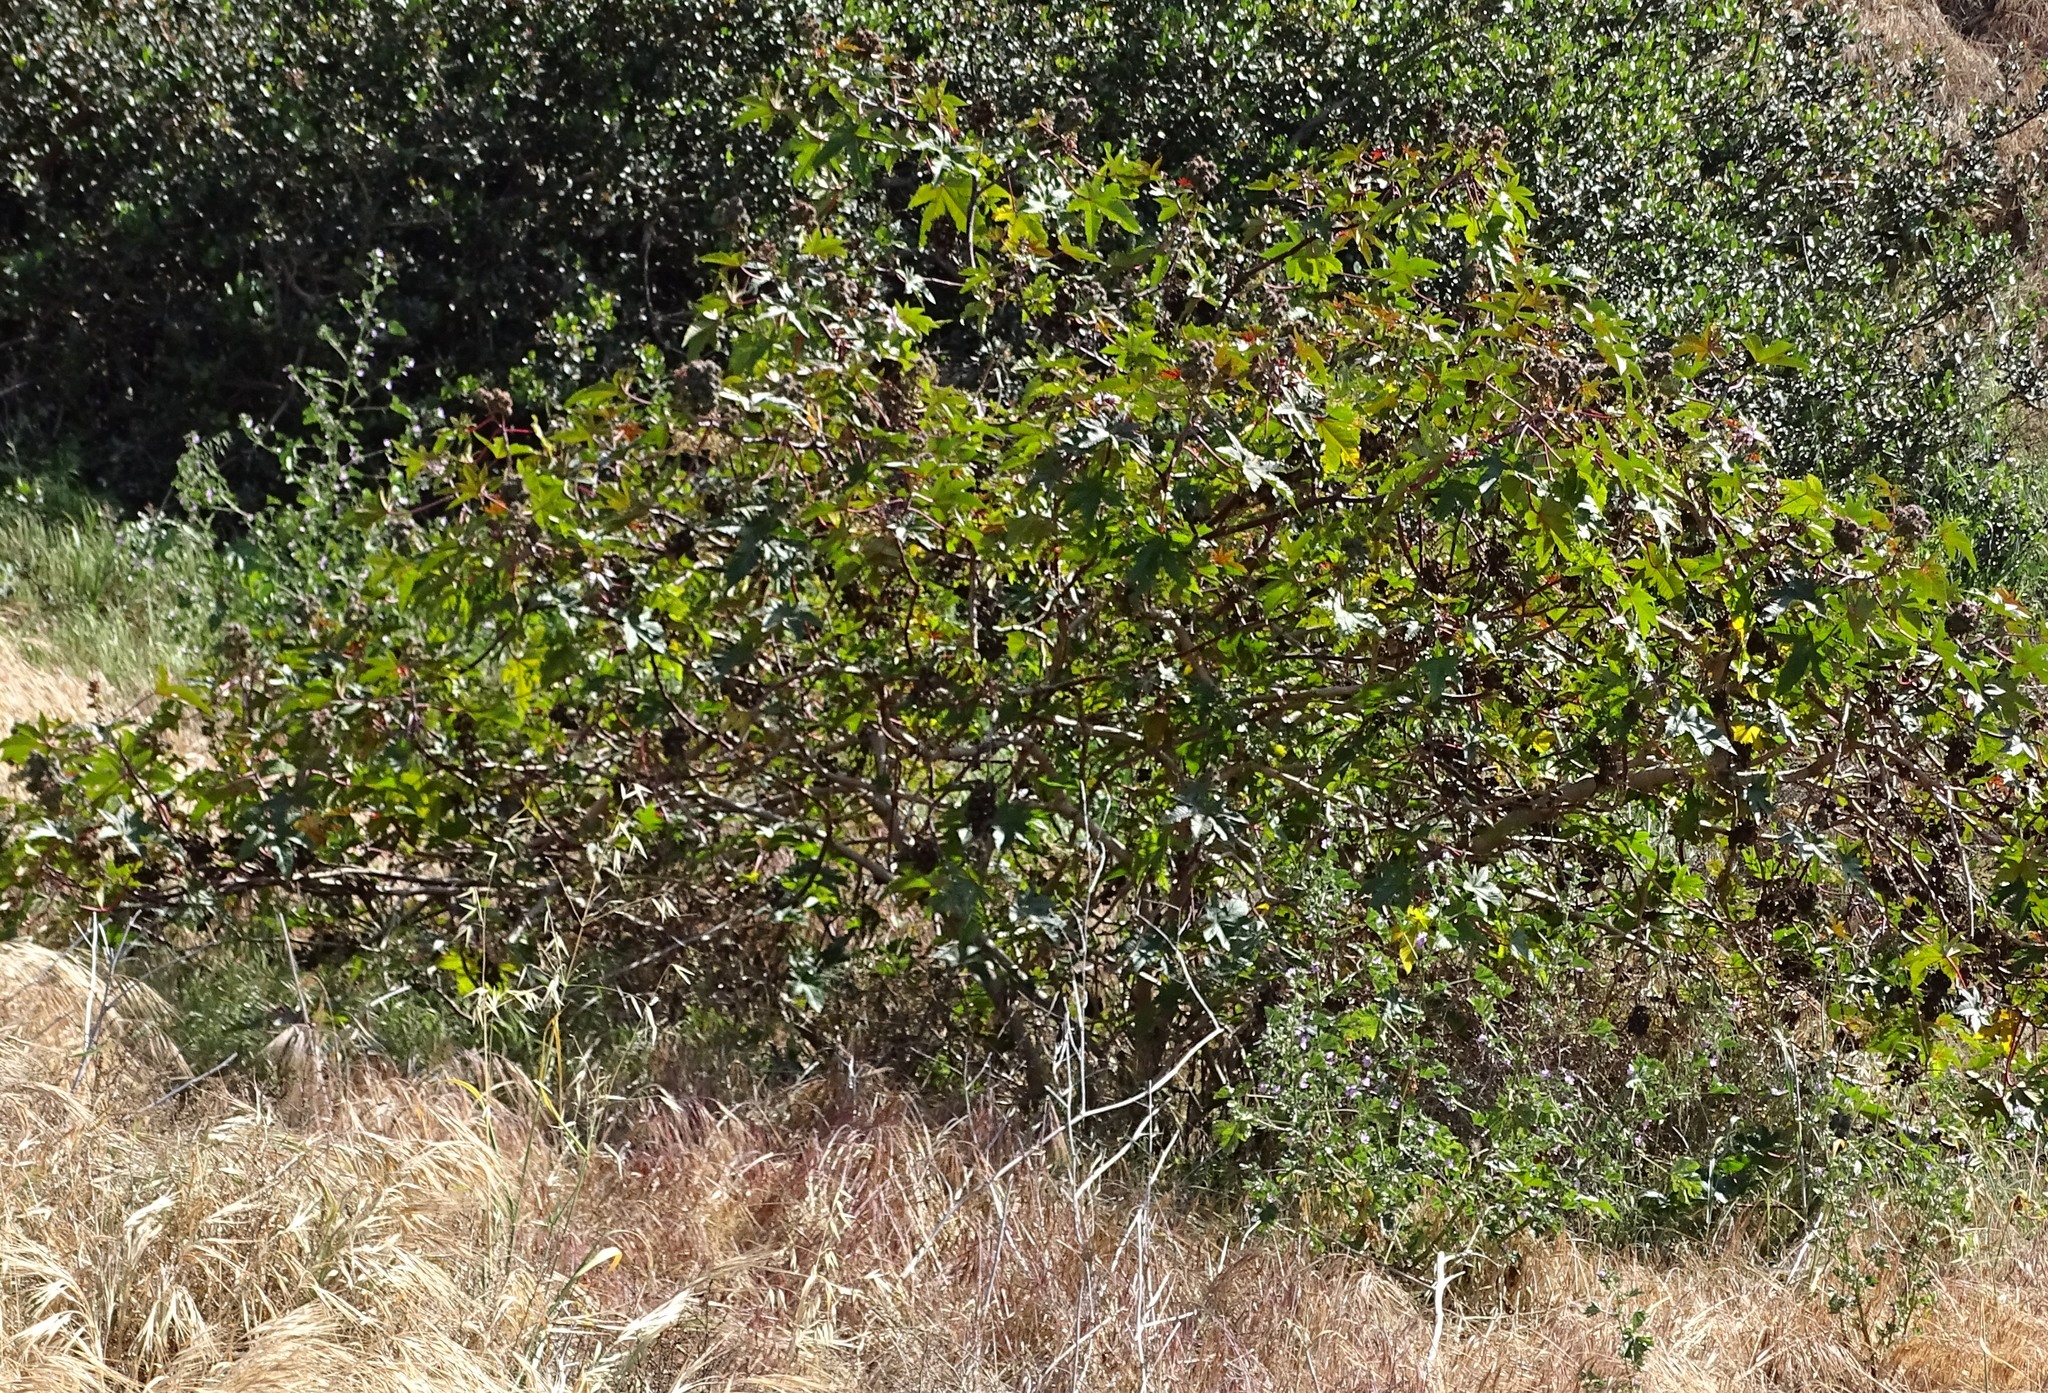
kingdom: Plantae
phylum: Tracheophyta
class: Magnoliopsida
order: Malpighiales
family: Euphorbiaceae
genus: Ricinus
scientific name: Ricinus communis
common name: Castor-oil-plant
